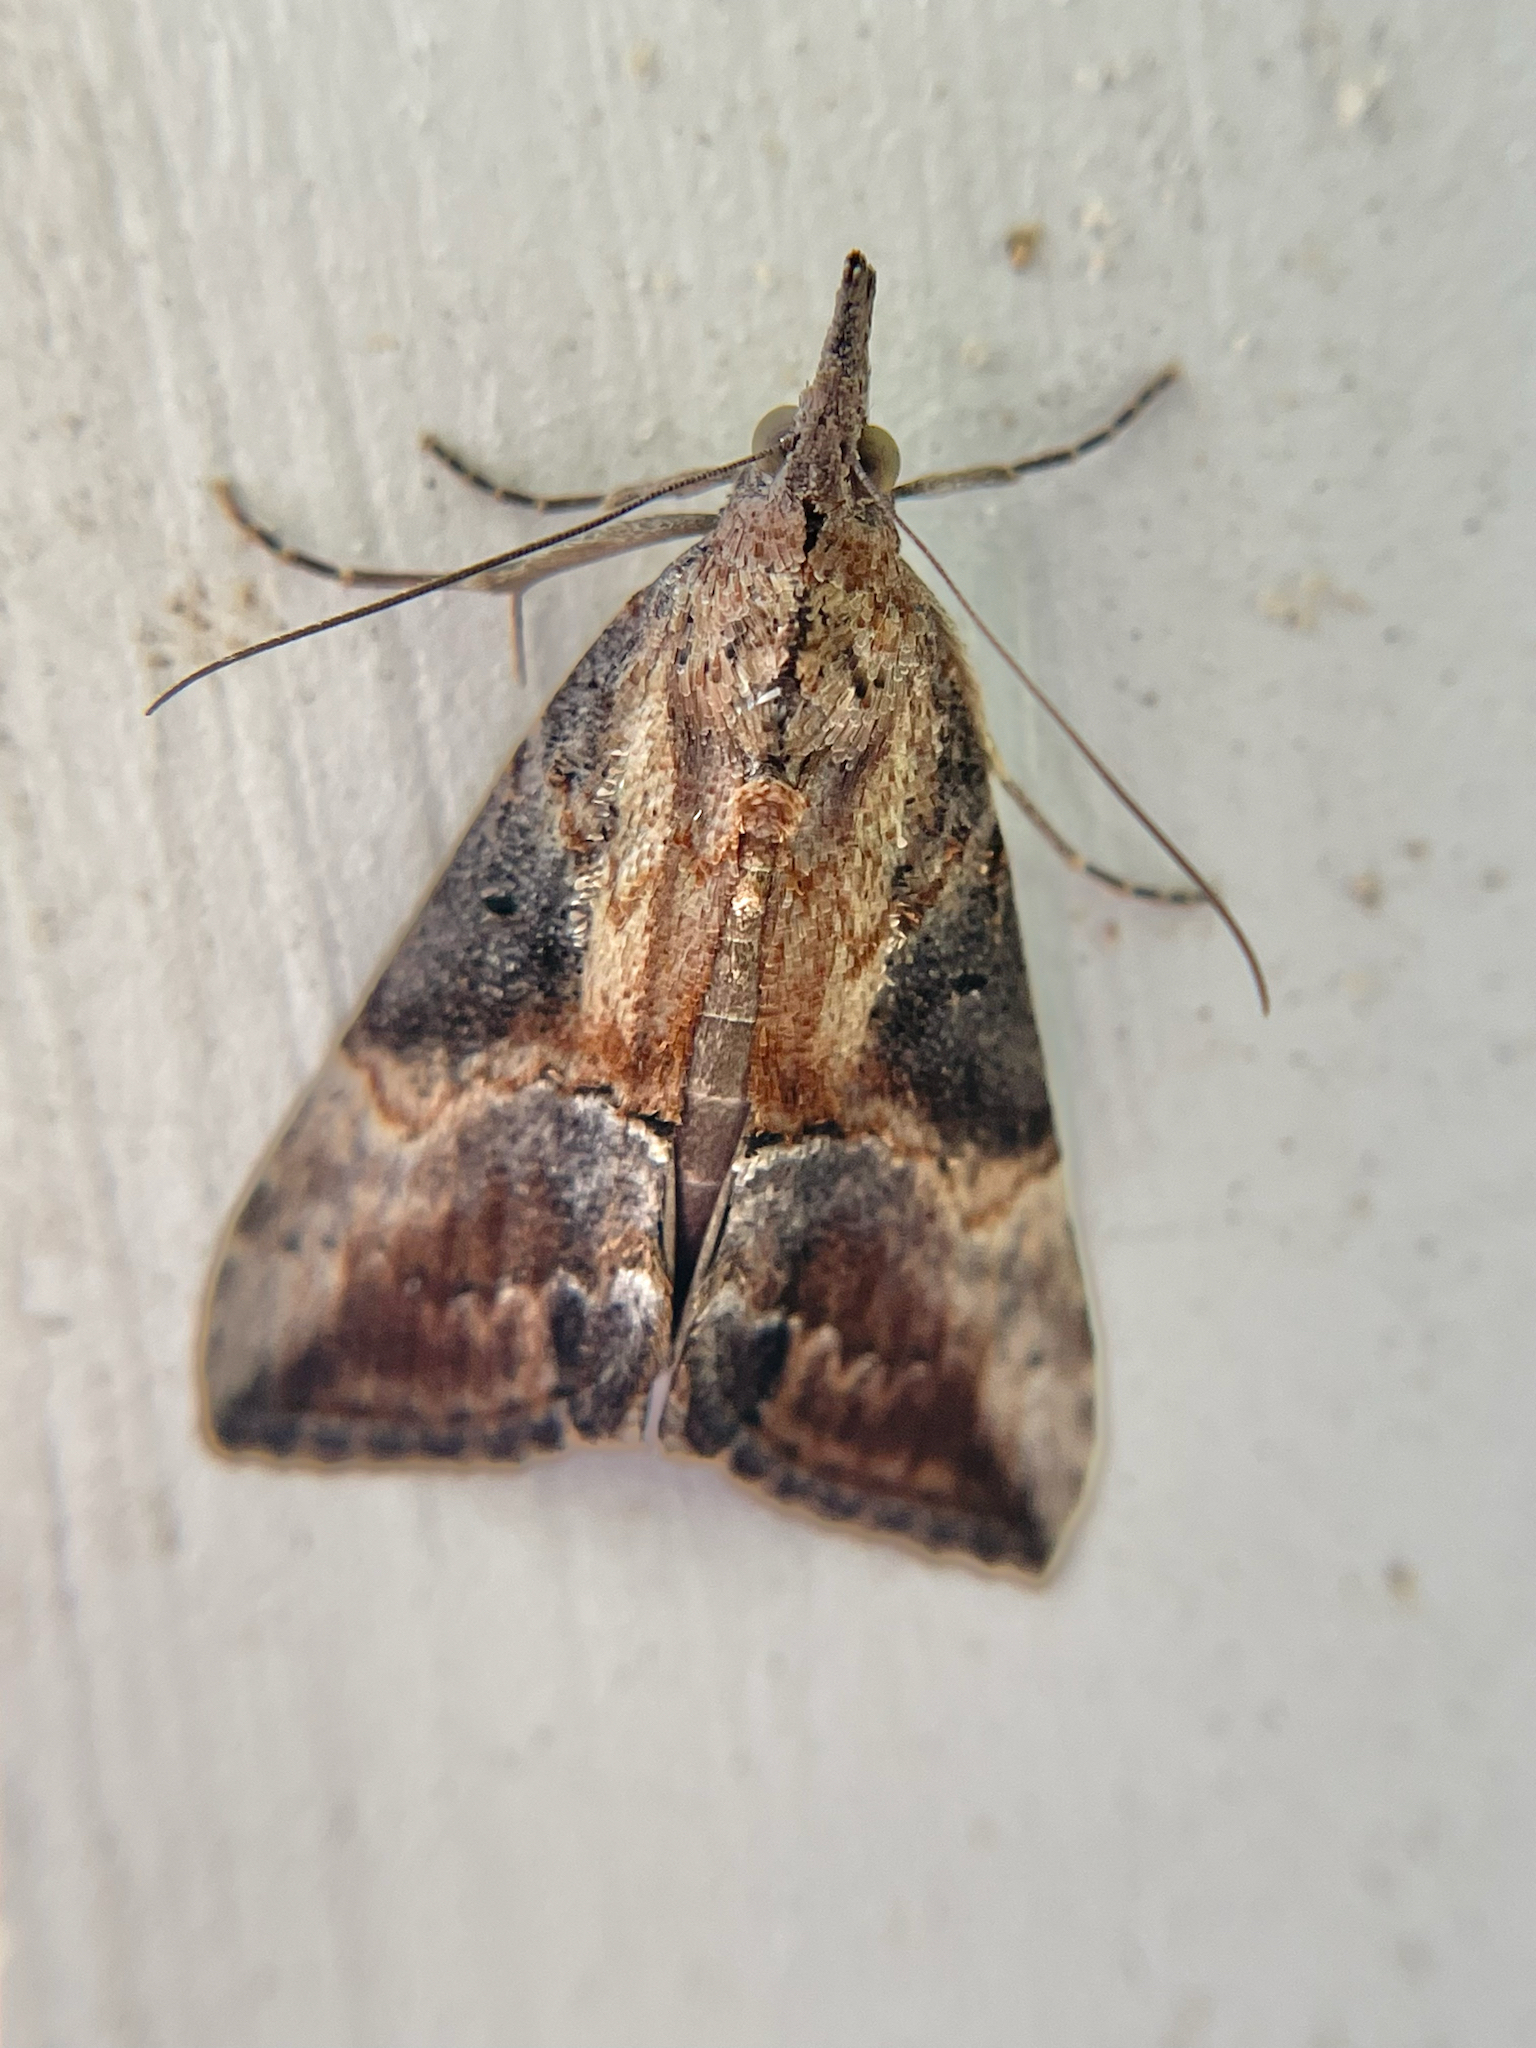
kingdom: Animalia
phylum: Arthropoda
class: Insecta
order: Lepidoptera
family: Erebidae
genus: Hypena
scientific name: Hypena scabra
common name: Green cloverworm
